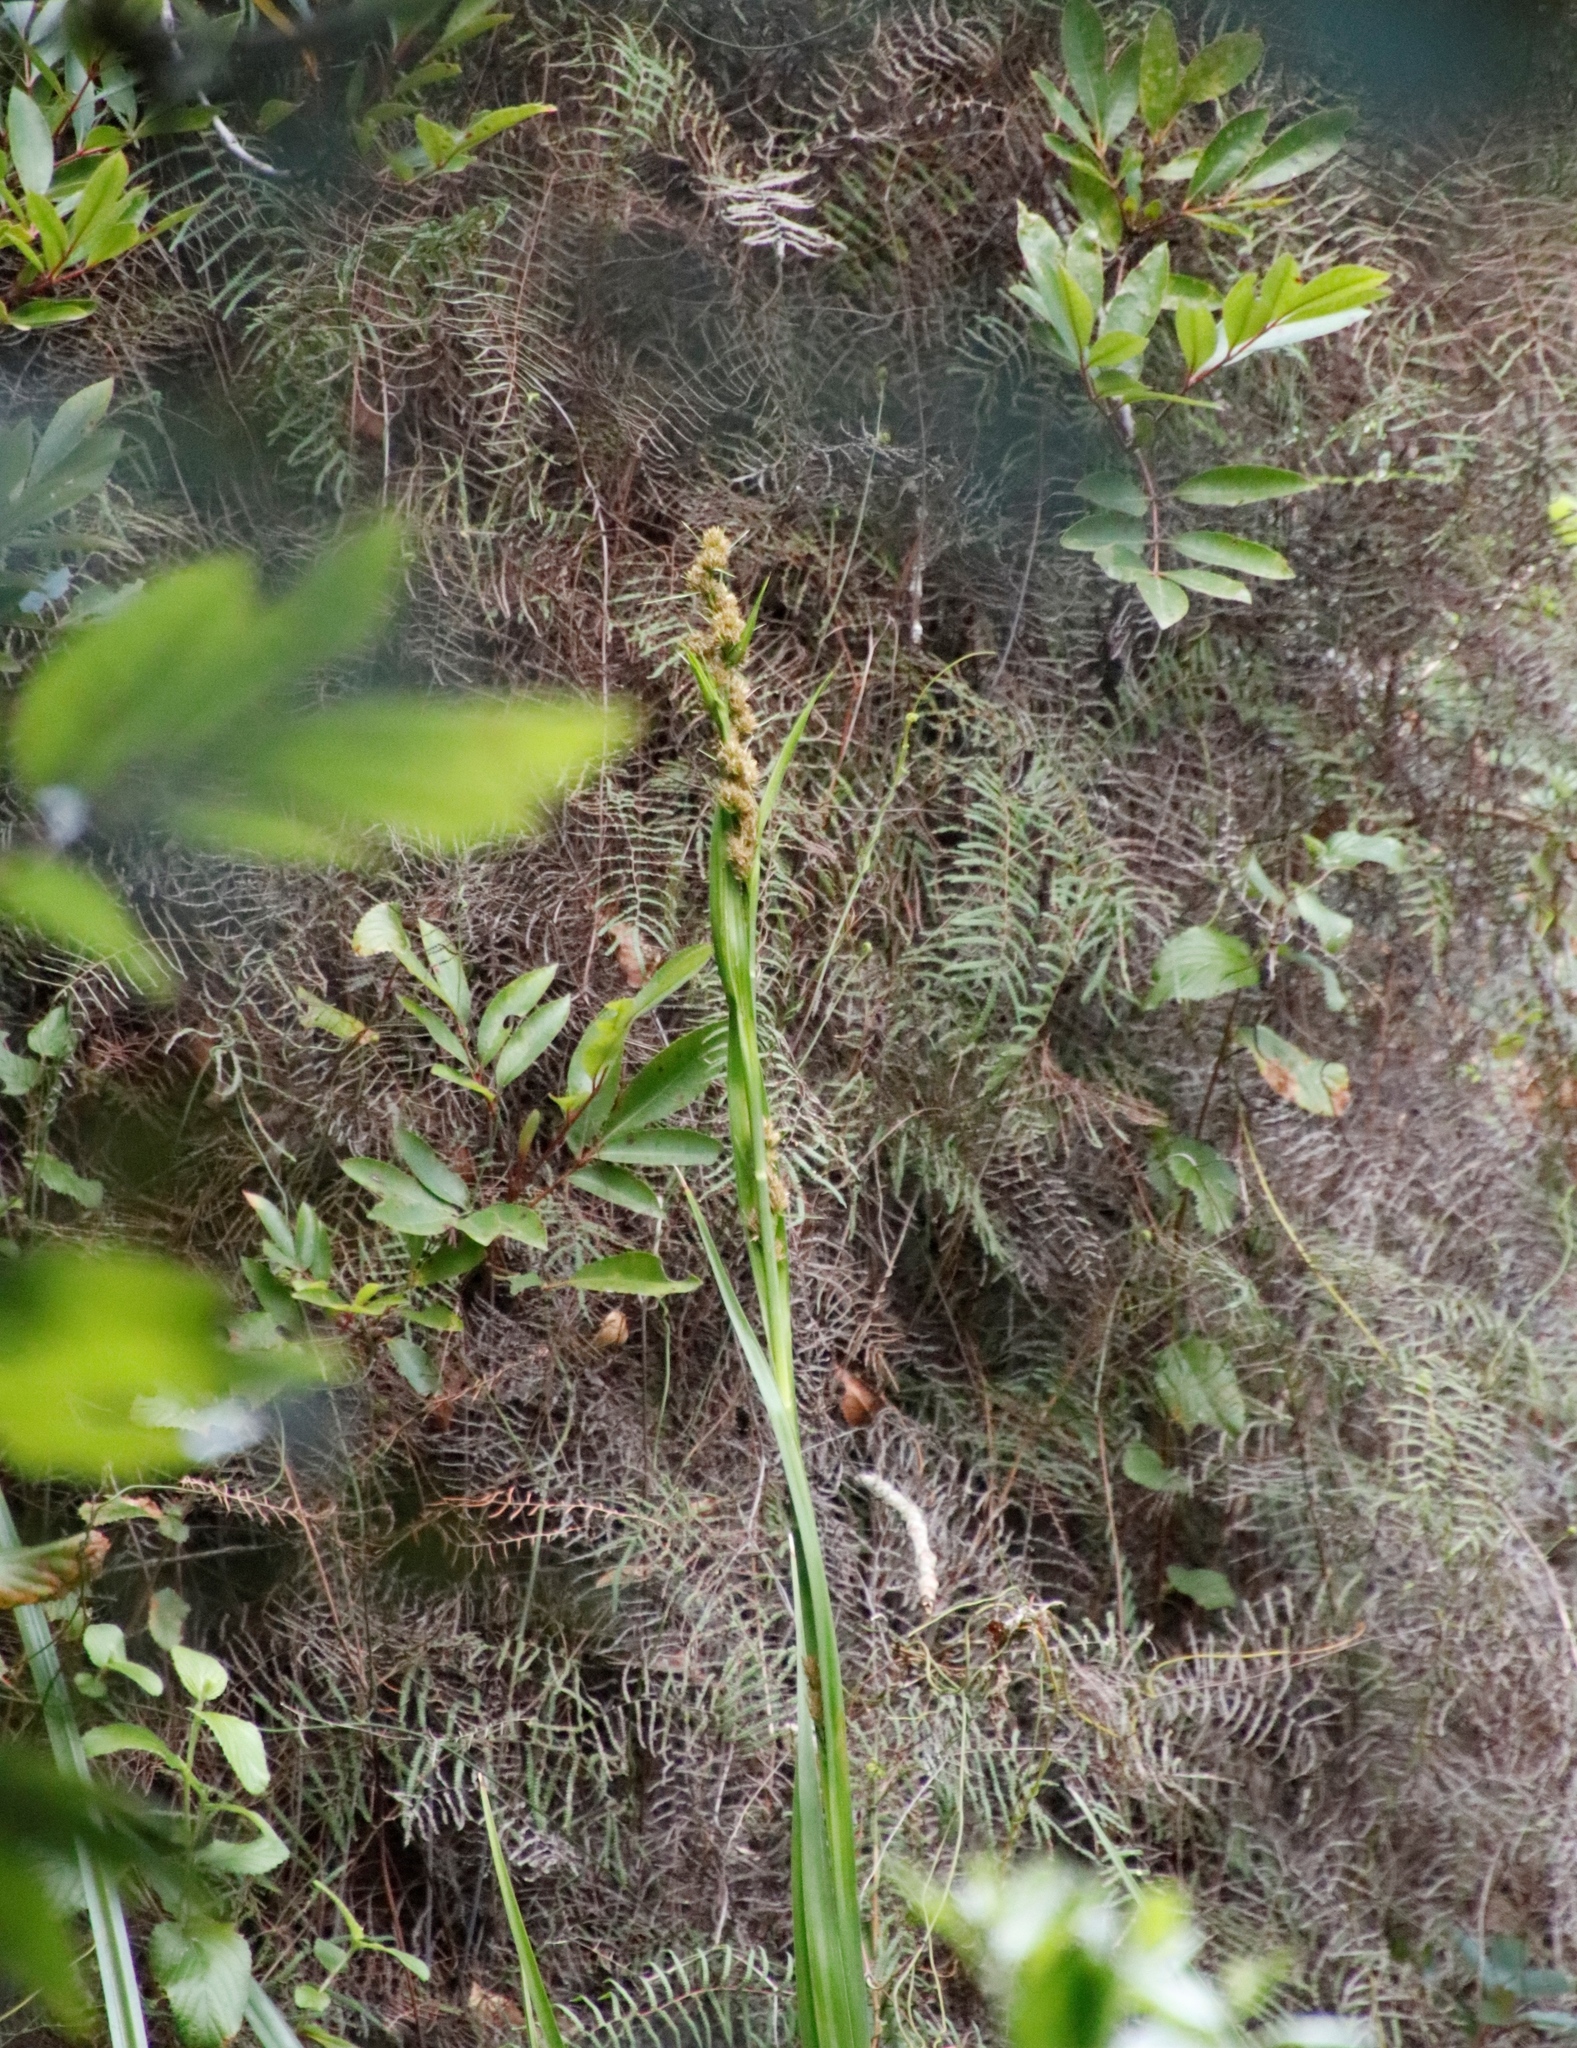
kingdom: Plantae
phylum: Tracheophyta
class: Liliopsida
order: Poales
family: Cyperaceae
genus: Carpha
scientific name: Carpha glomerata
